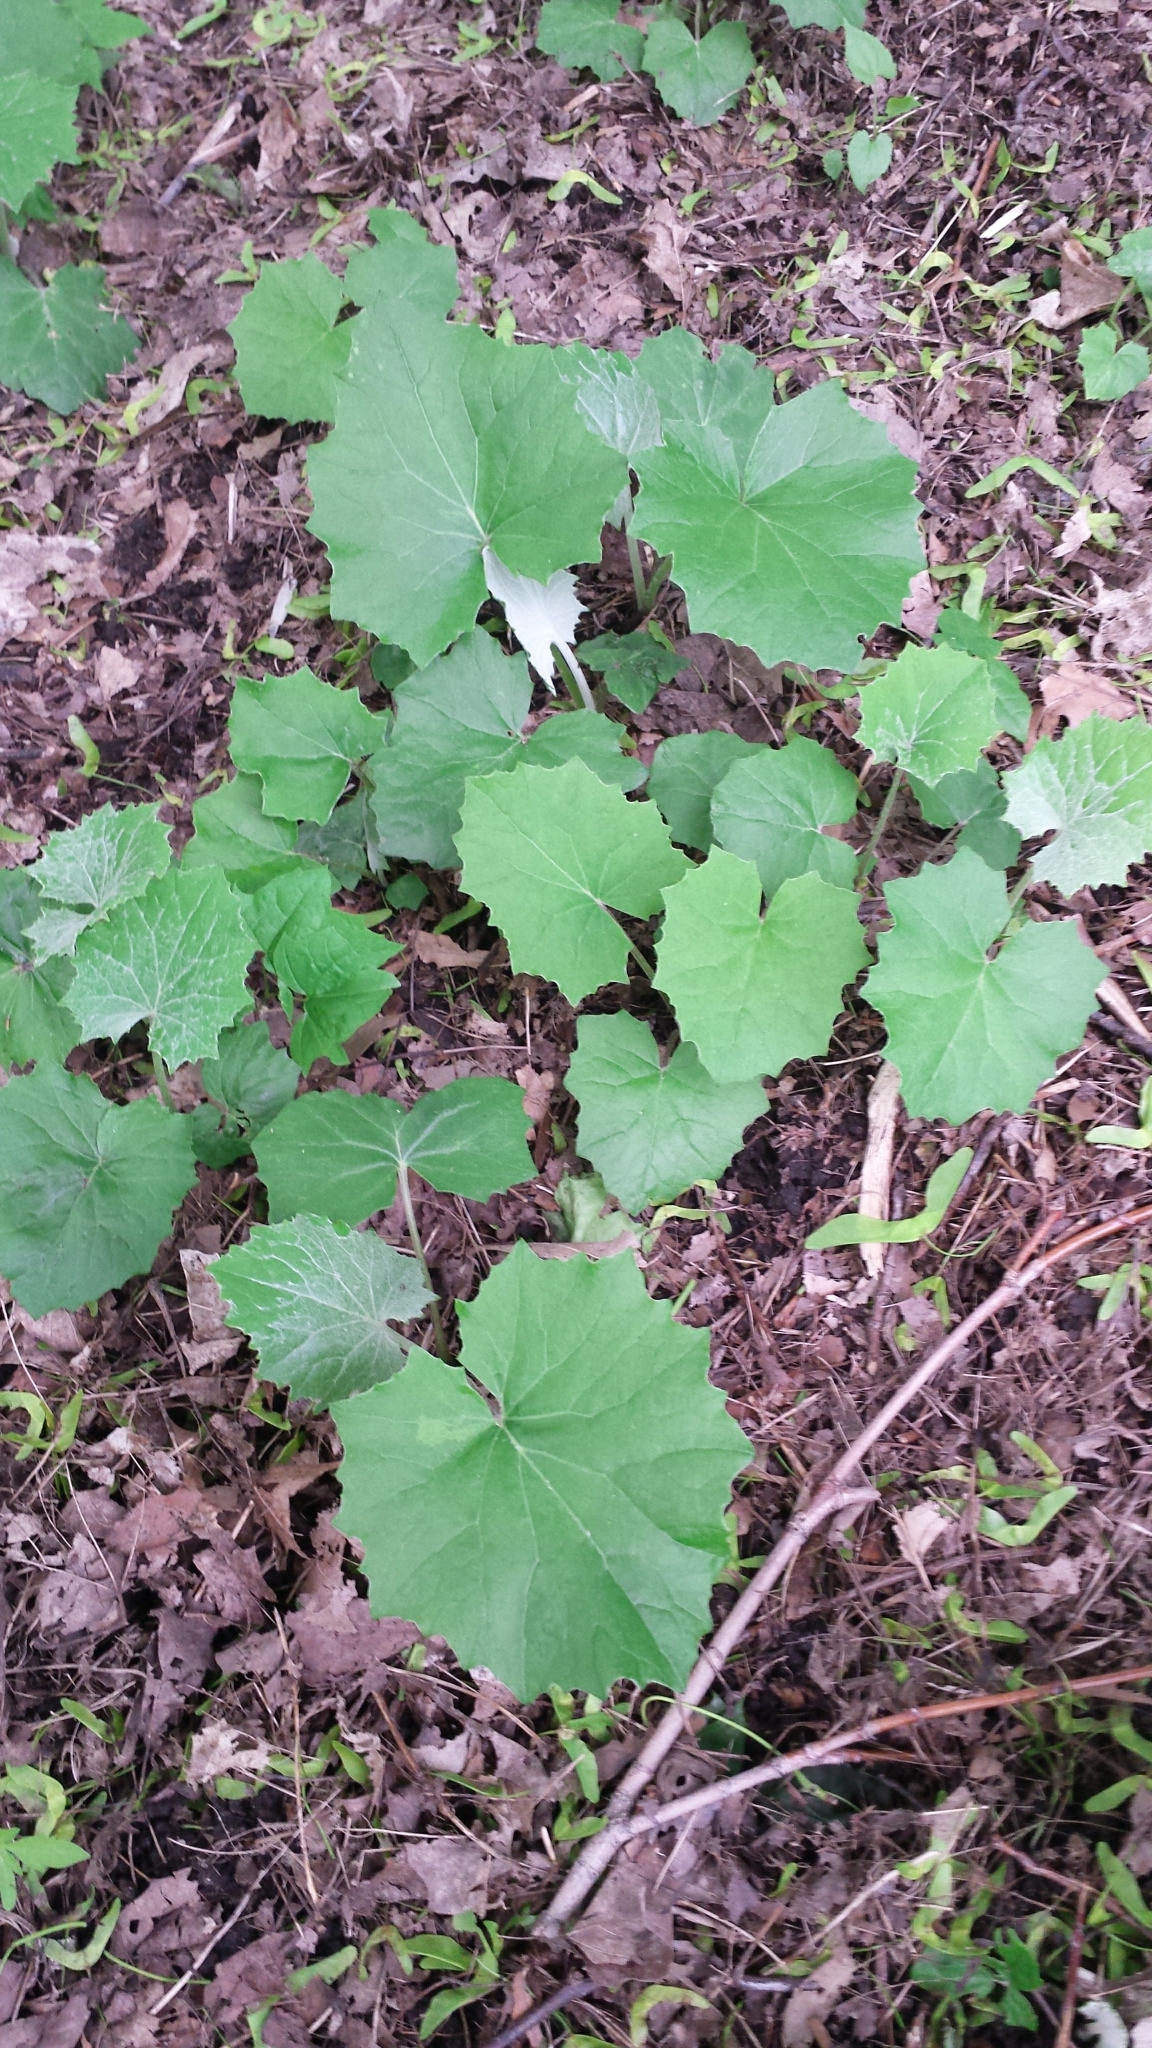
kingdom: Plantae
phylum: Tracheophyta
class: Magnoliopsida
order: Asterales
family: Asteraceae
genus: Tussilago
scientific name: Tussilago farfara
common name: Coltsfoot
